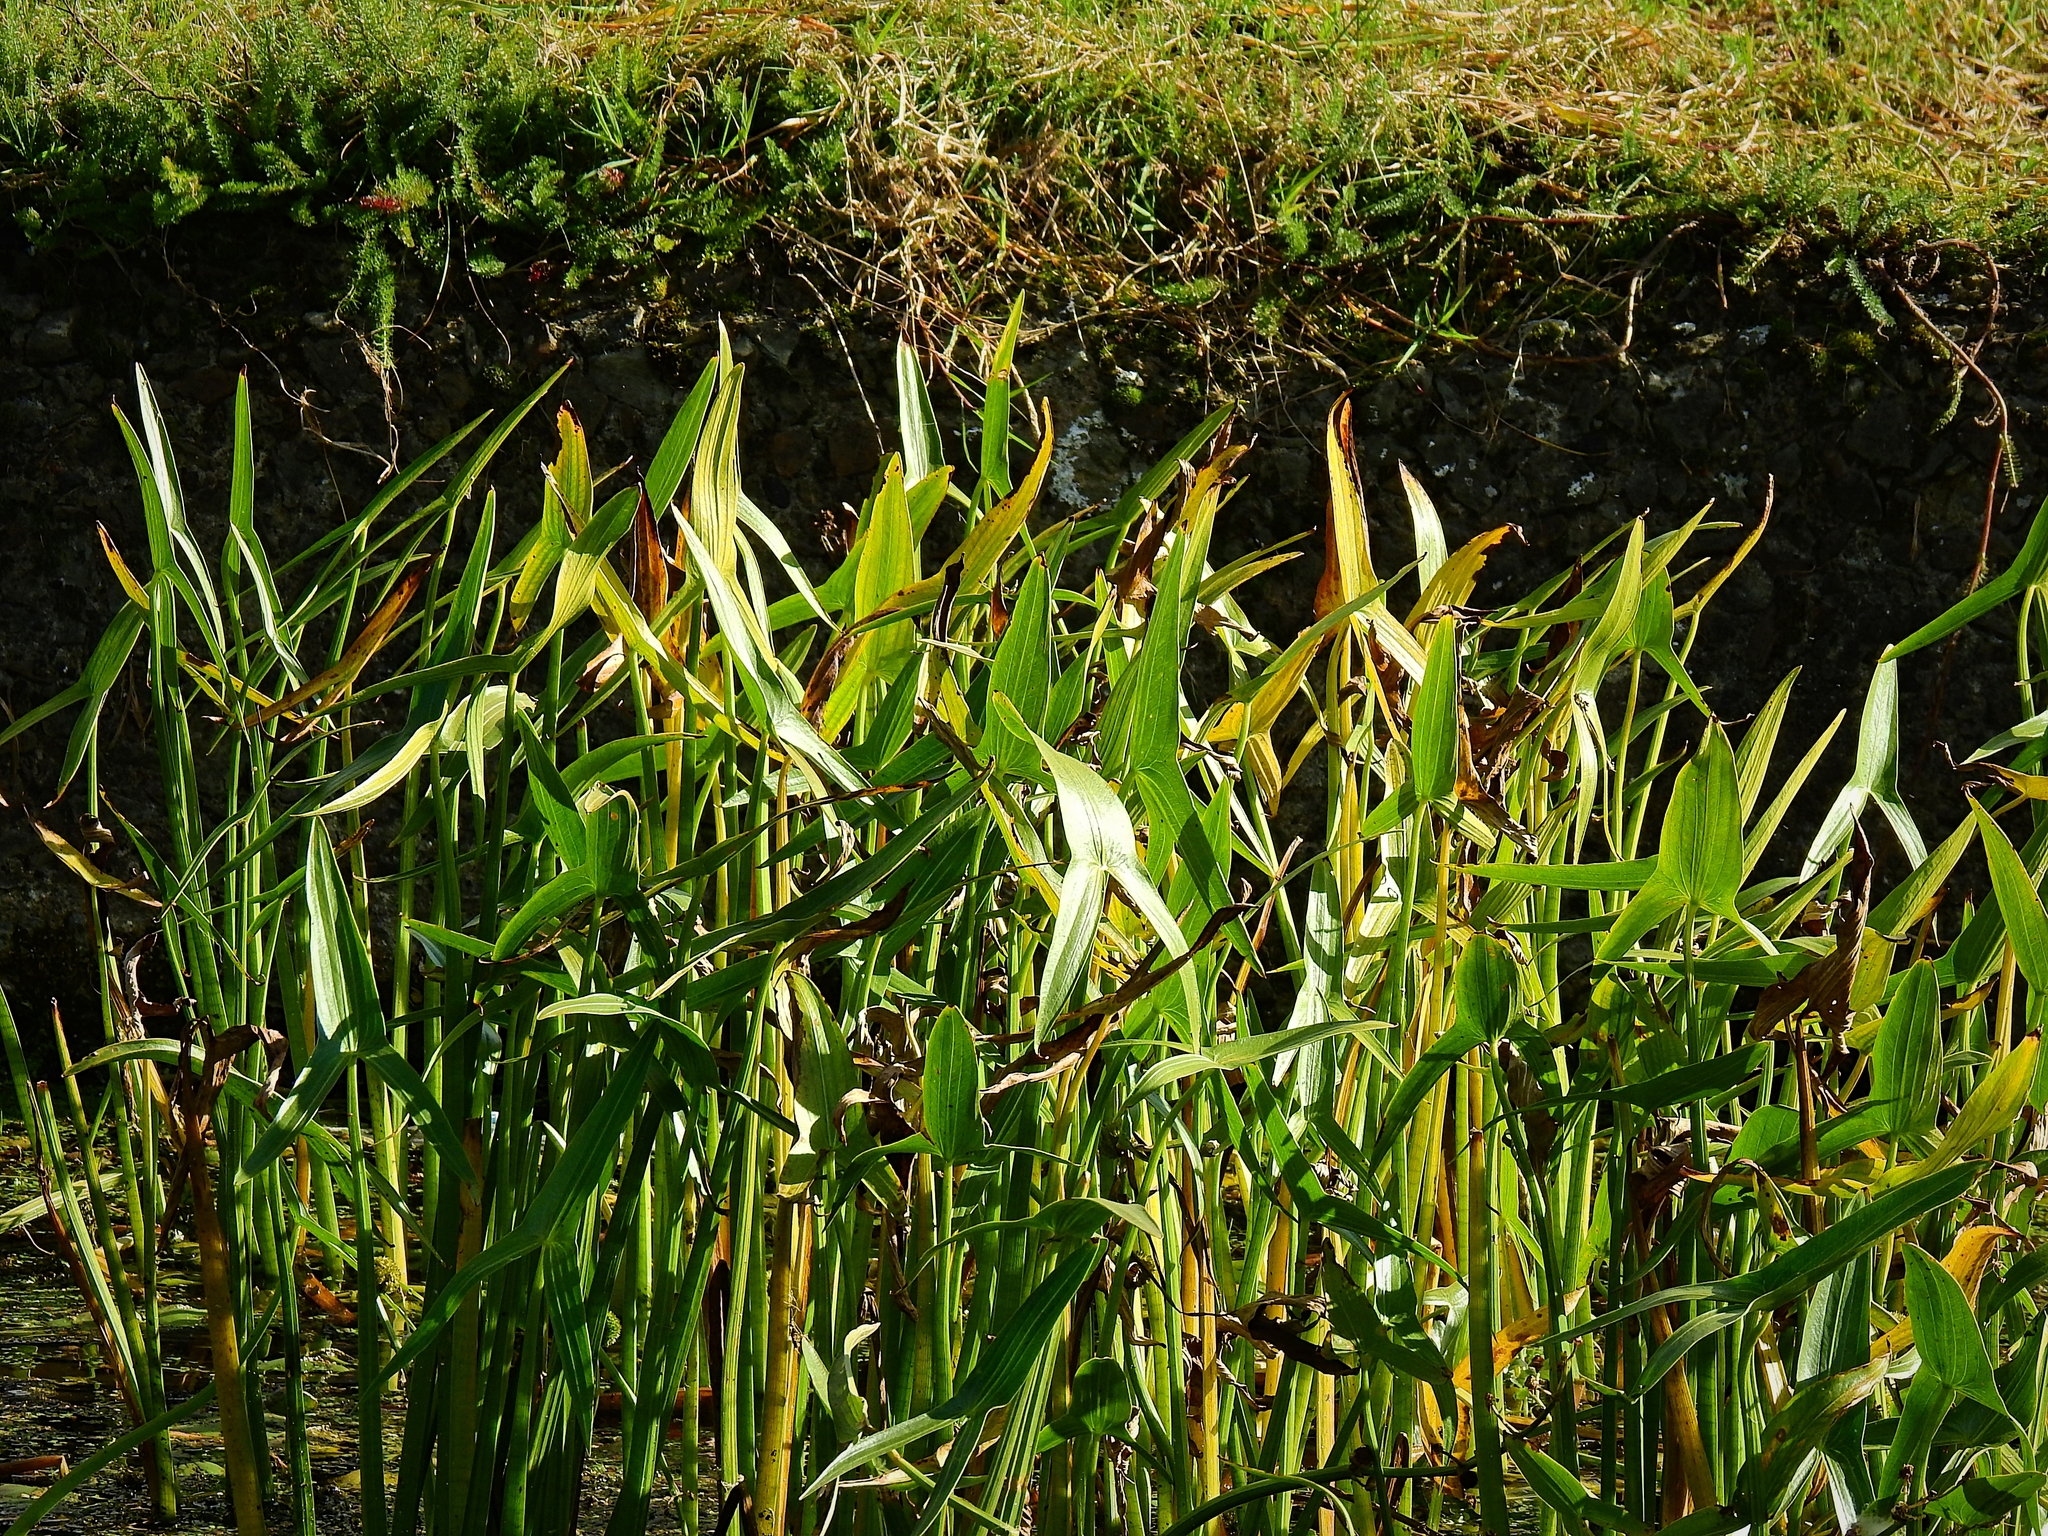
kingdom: Plantae
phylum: Tracheophyta
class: Liliopsida
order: Alismatales
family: Alismataceae
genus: Sagittaria
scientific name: Sagittaria sagittifolia
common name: Arrowhead
